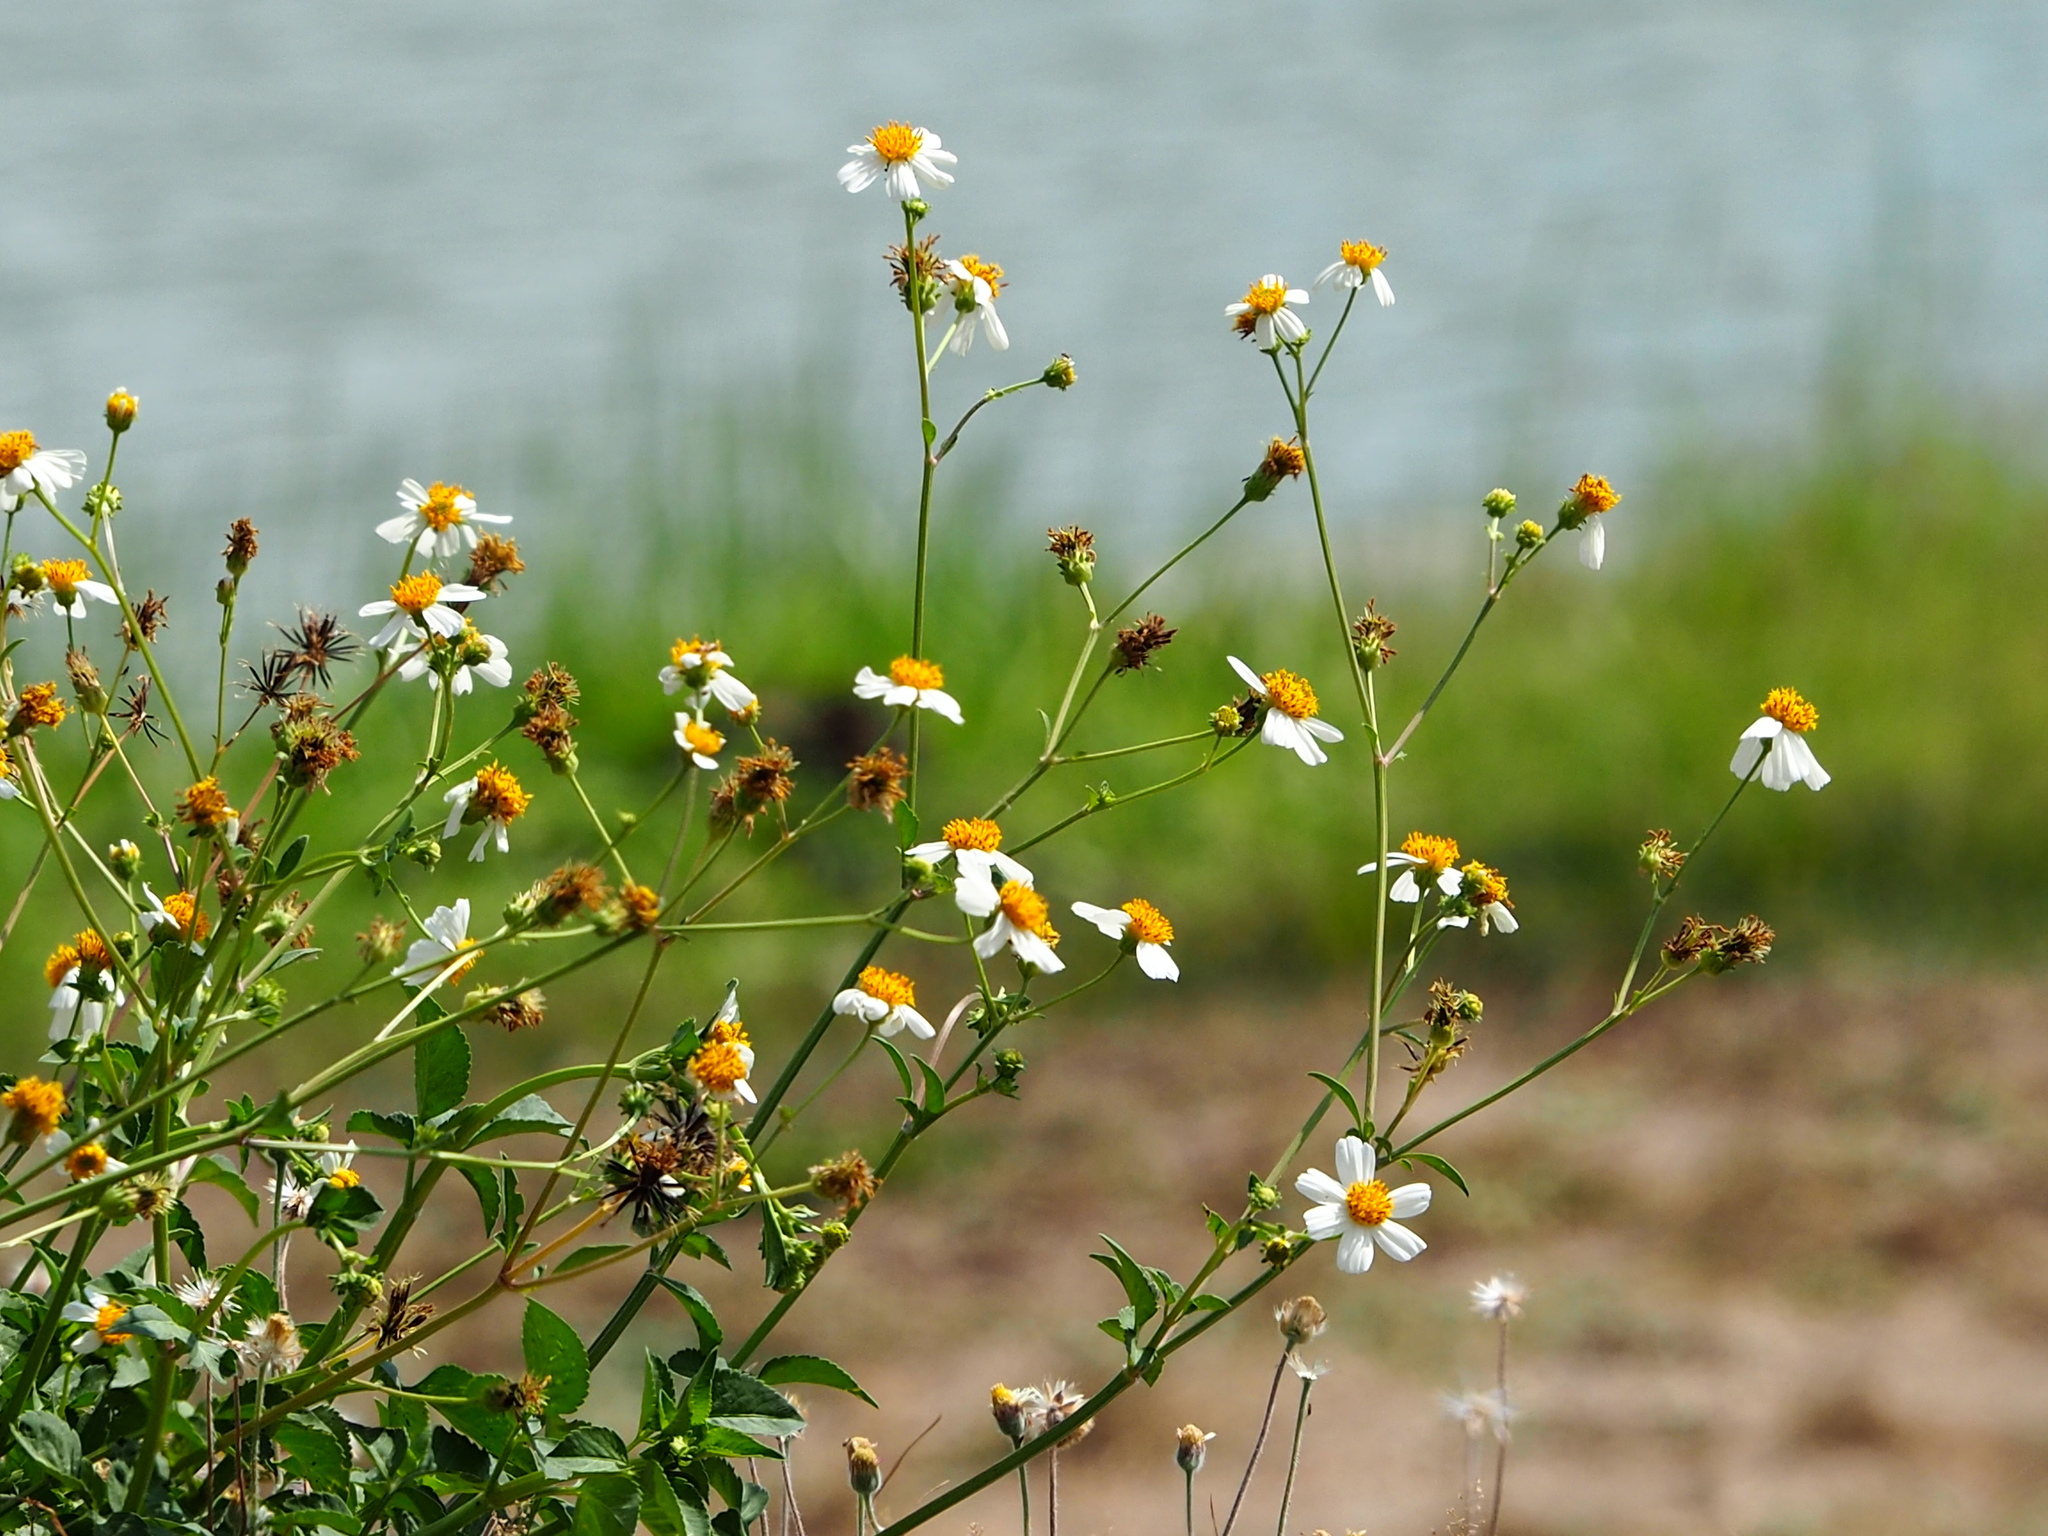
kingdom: Plantae
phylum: Tracheophyta
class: Magnoliopsida
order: Asterales
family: Asteraceae
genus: Bidens
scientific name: Bidens alba
